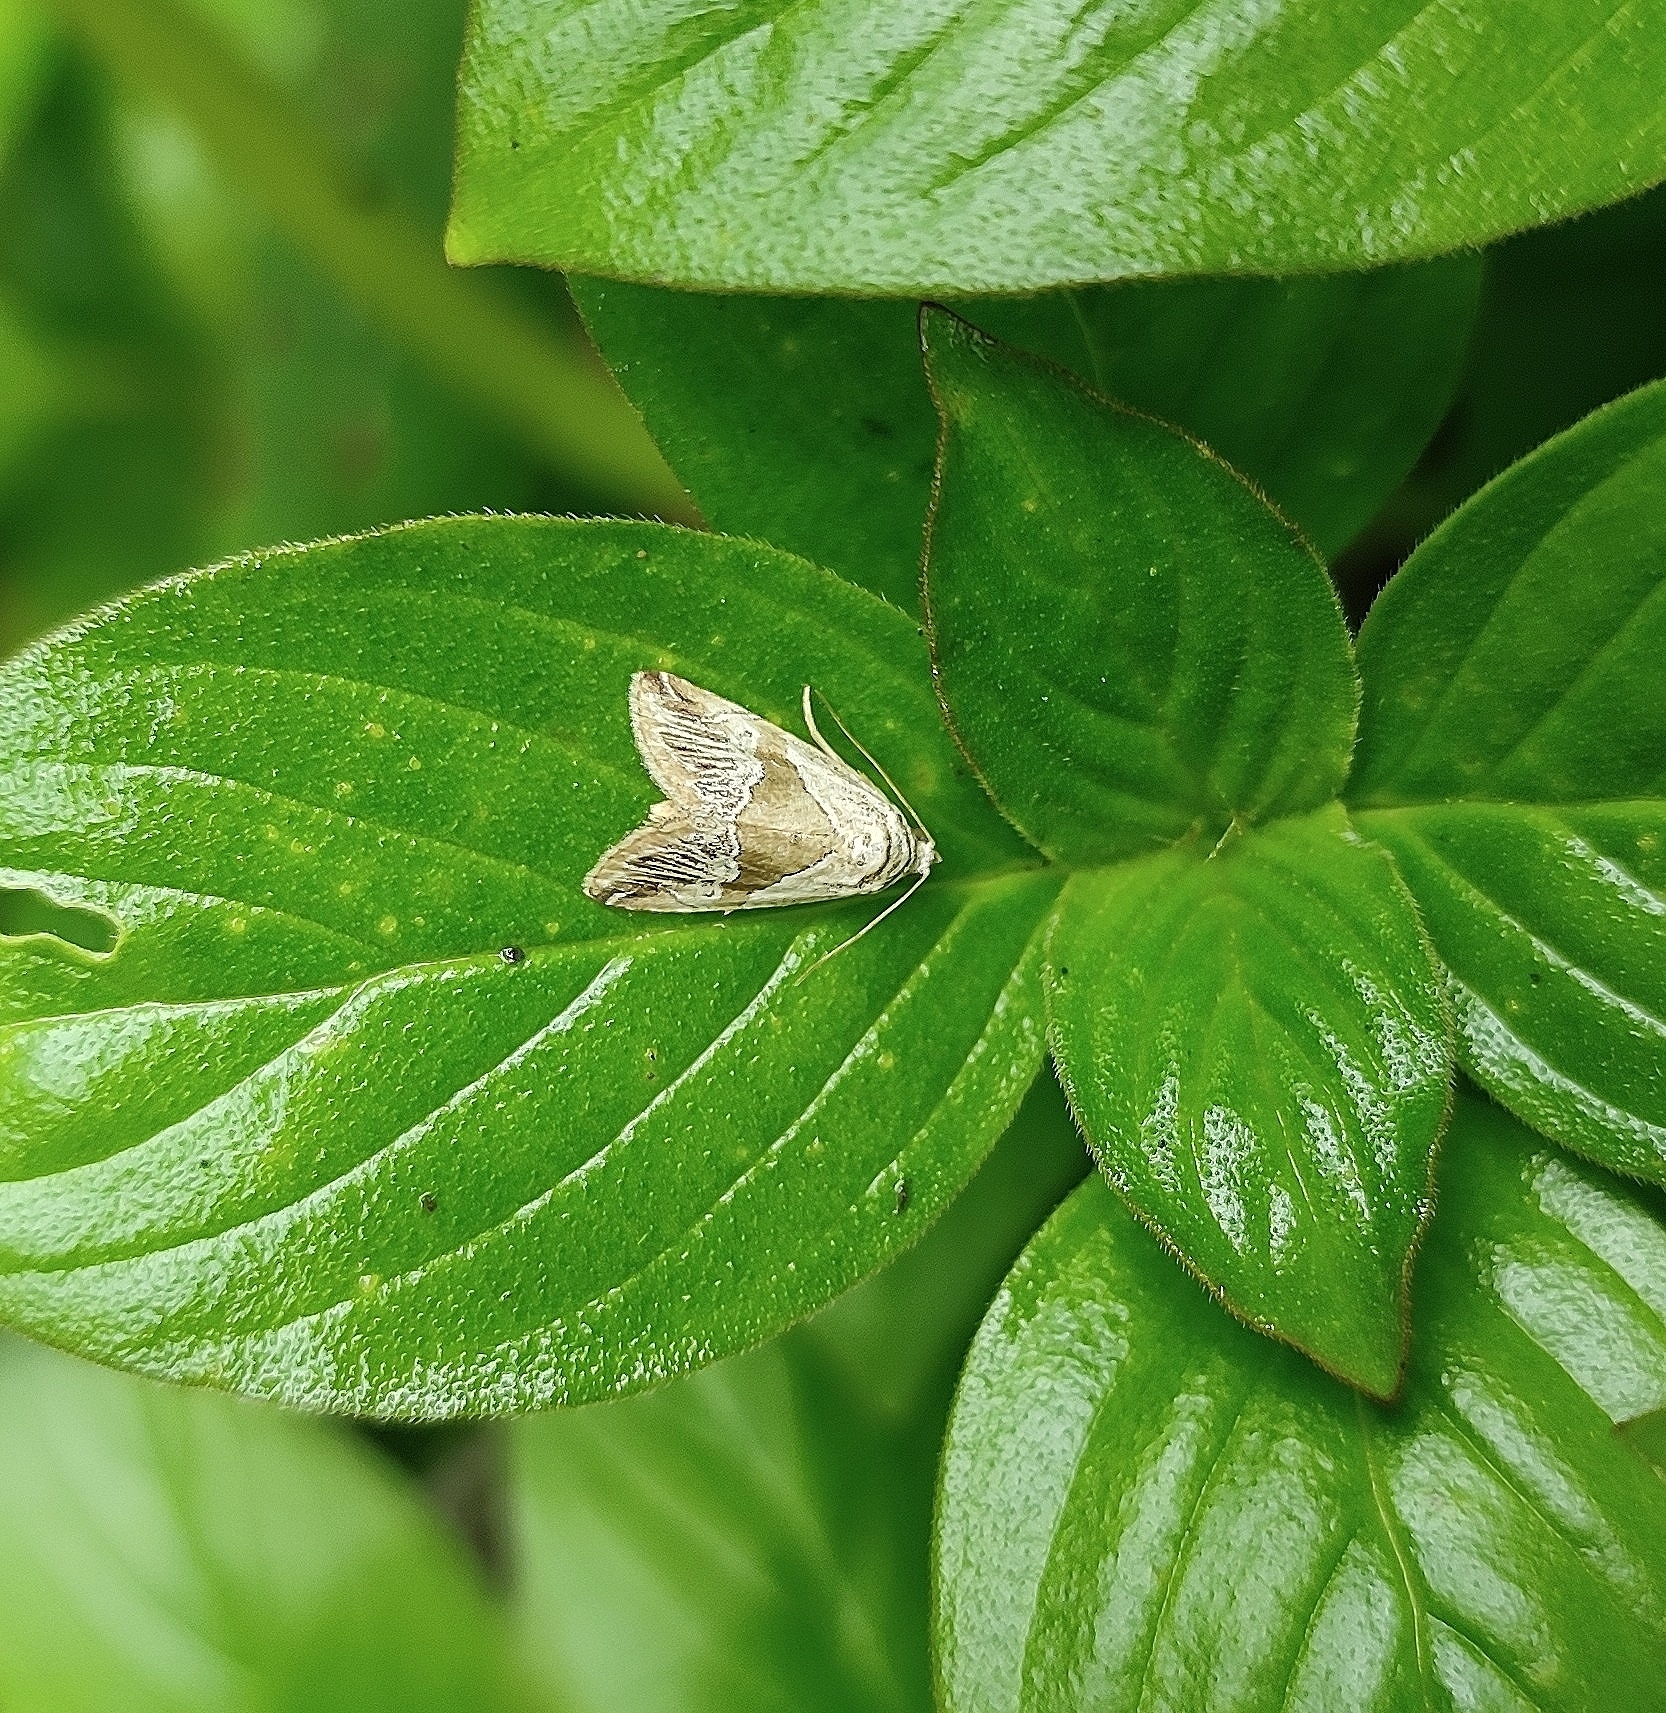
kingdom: Animalia
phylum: Arthropoda
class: Insecta
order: Lepidoptera
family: Noctuidae
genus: Maliattha
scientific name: Maliattha separata
